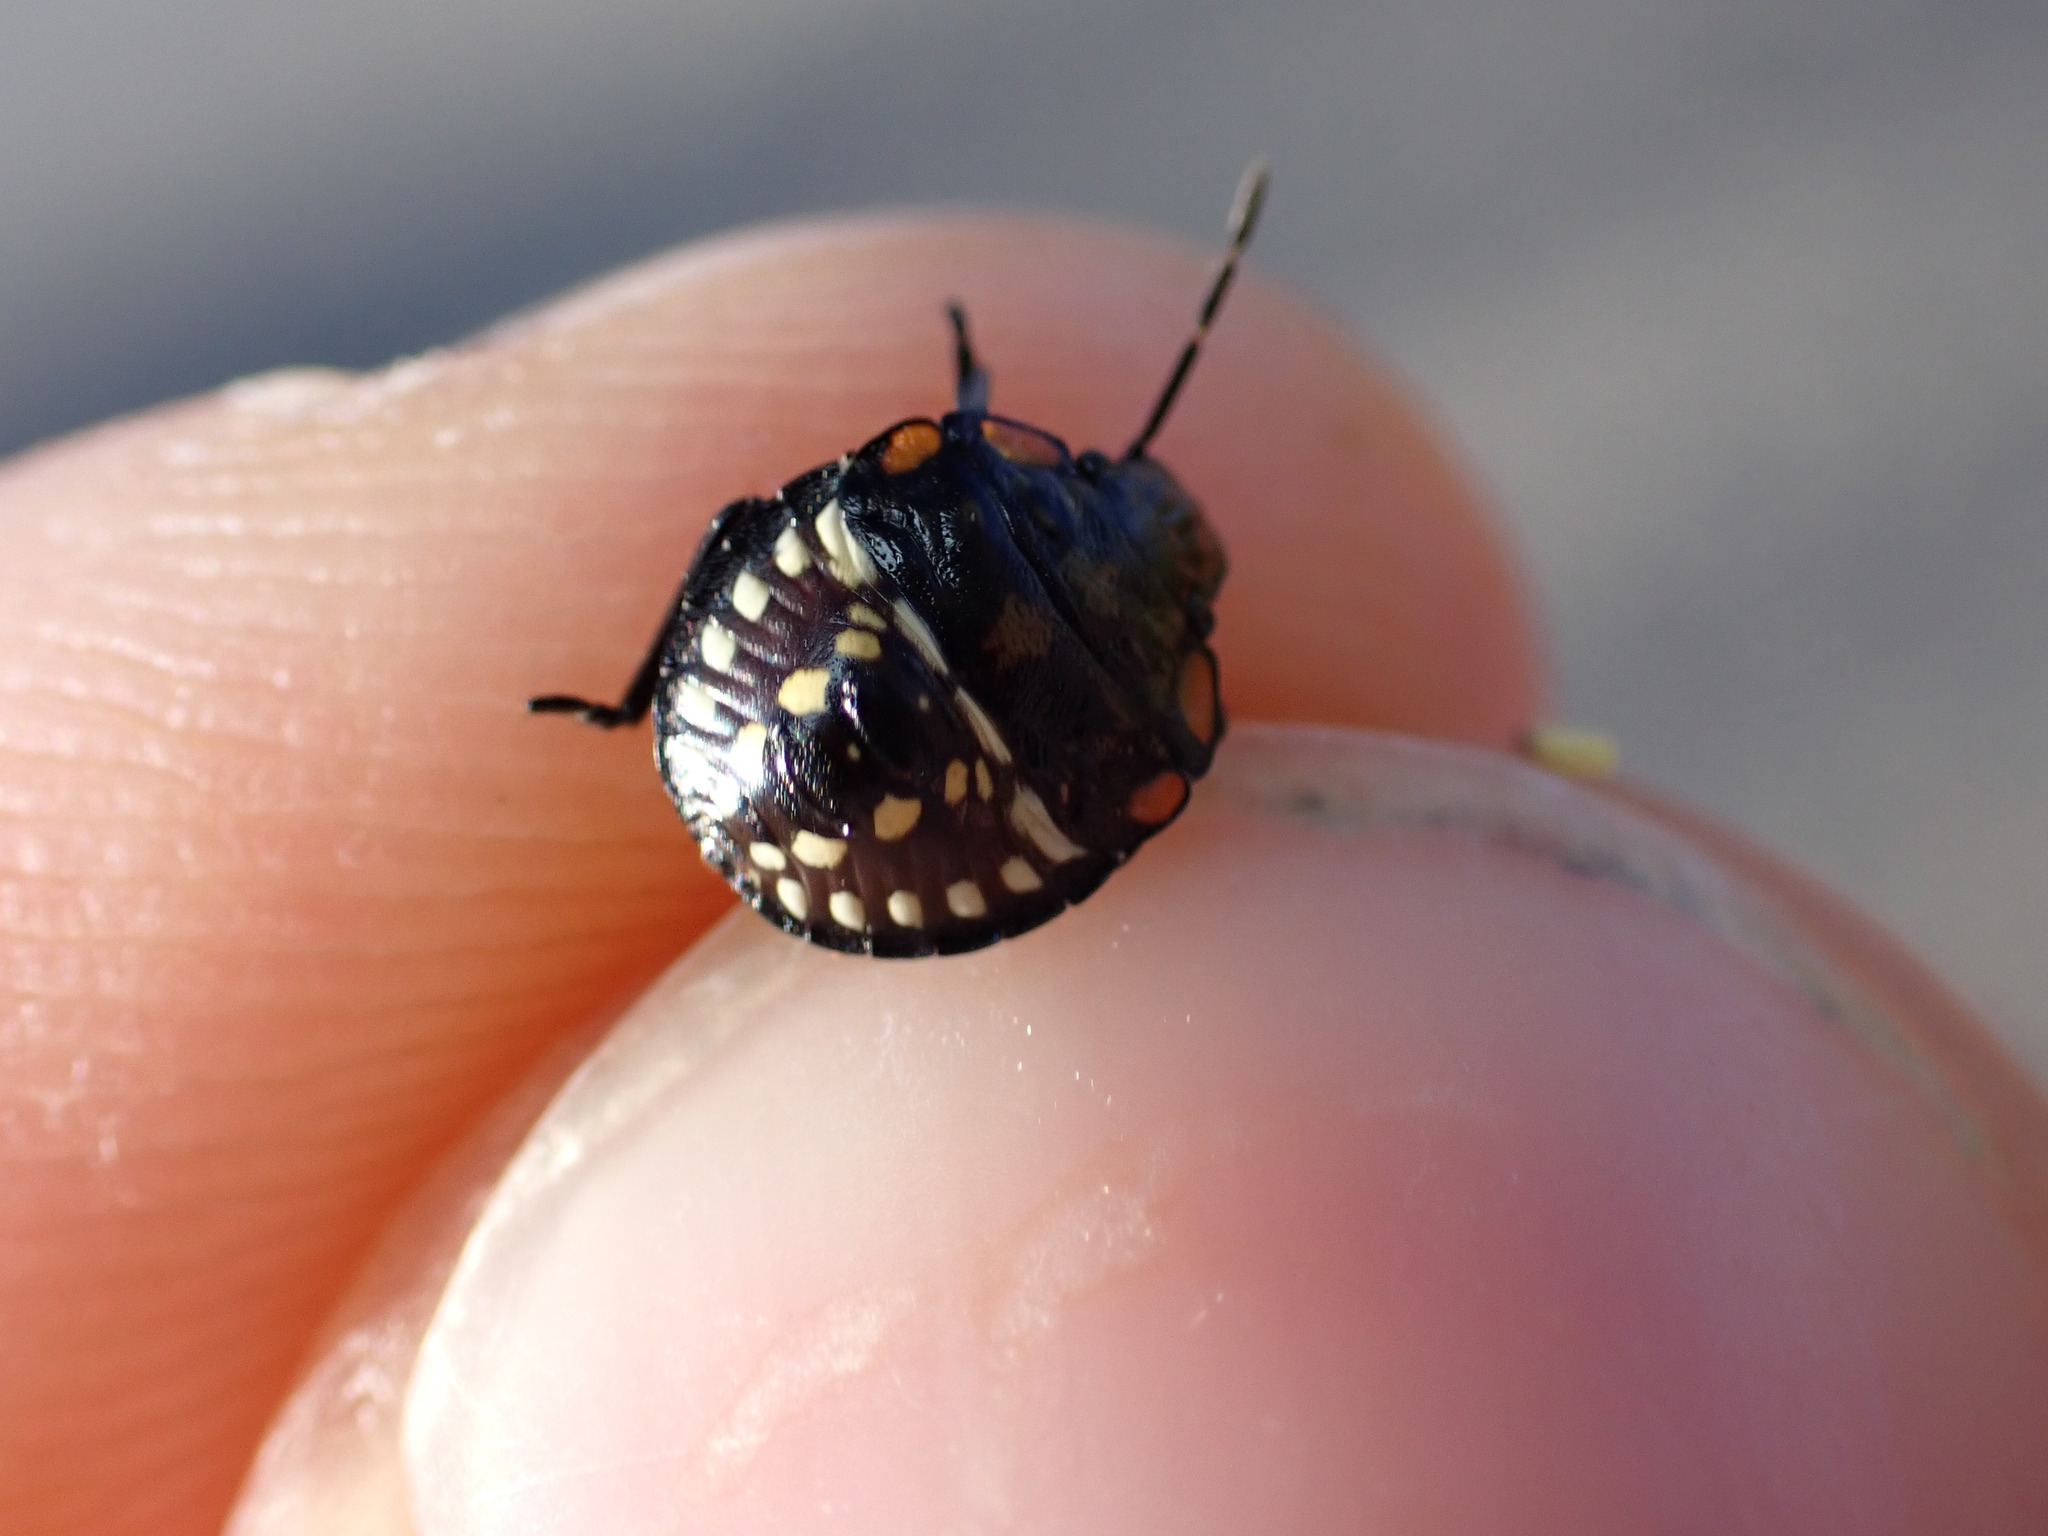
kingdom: Animalia
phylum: Arthropoda
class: Insecta
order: Hemiptera
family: Pentatomidae
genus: Nezara
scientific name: Nezara viridula
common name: Southern green stink bug
